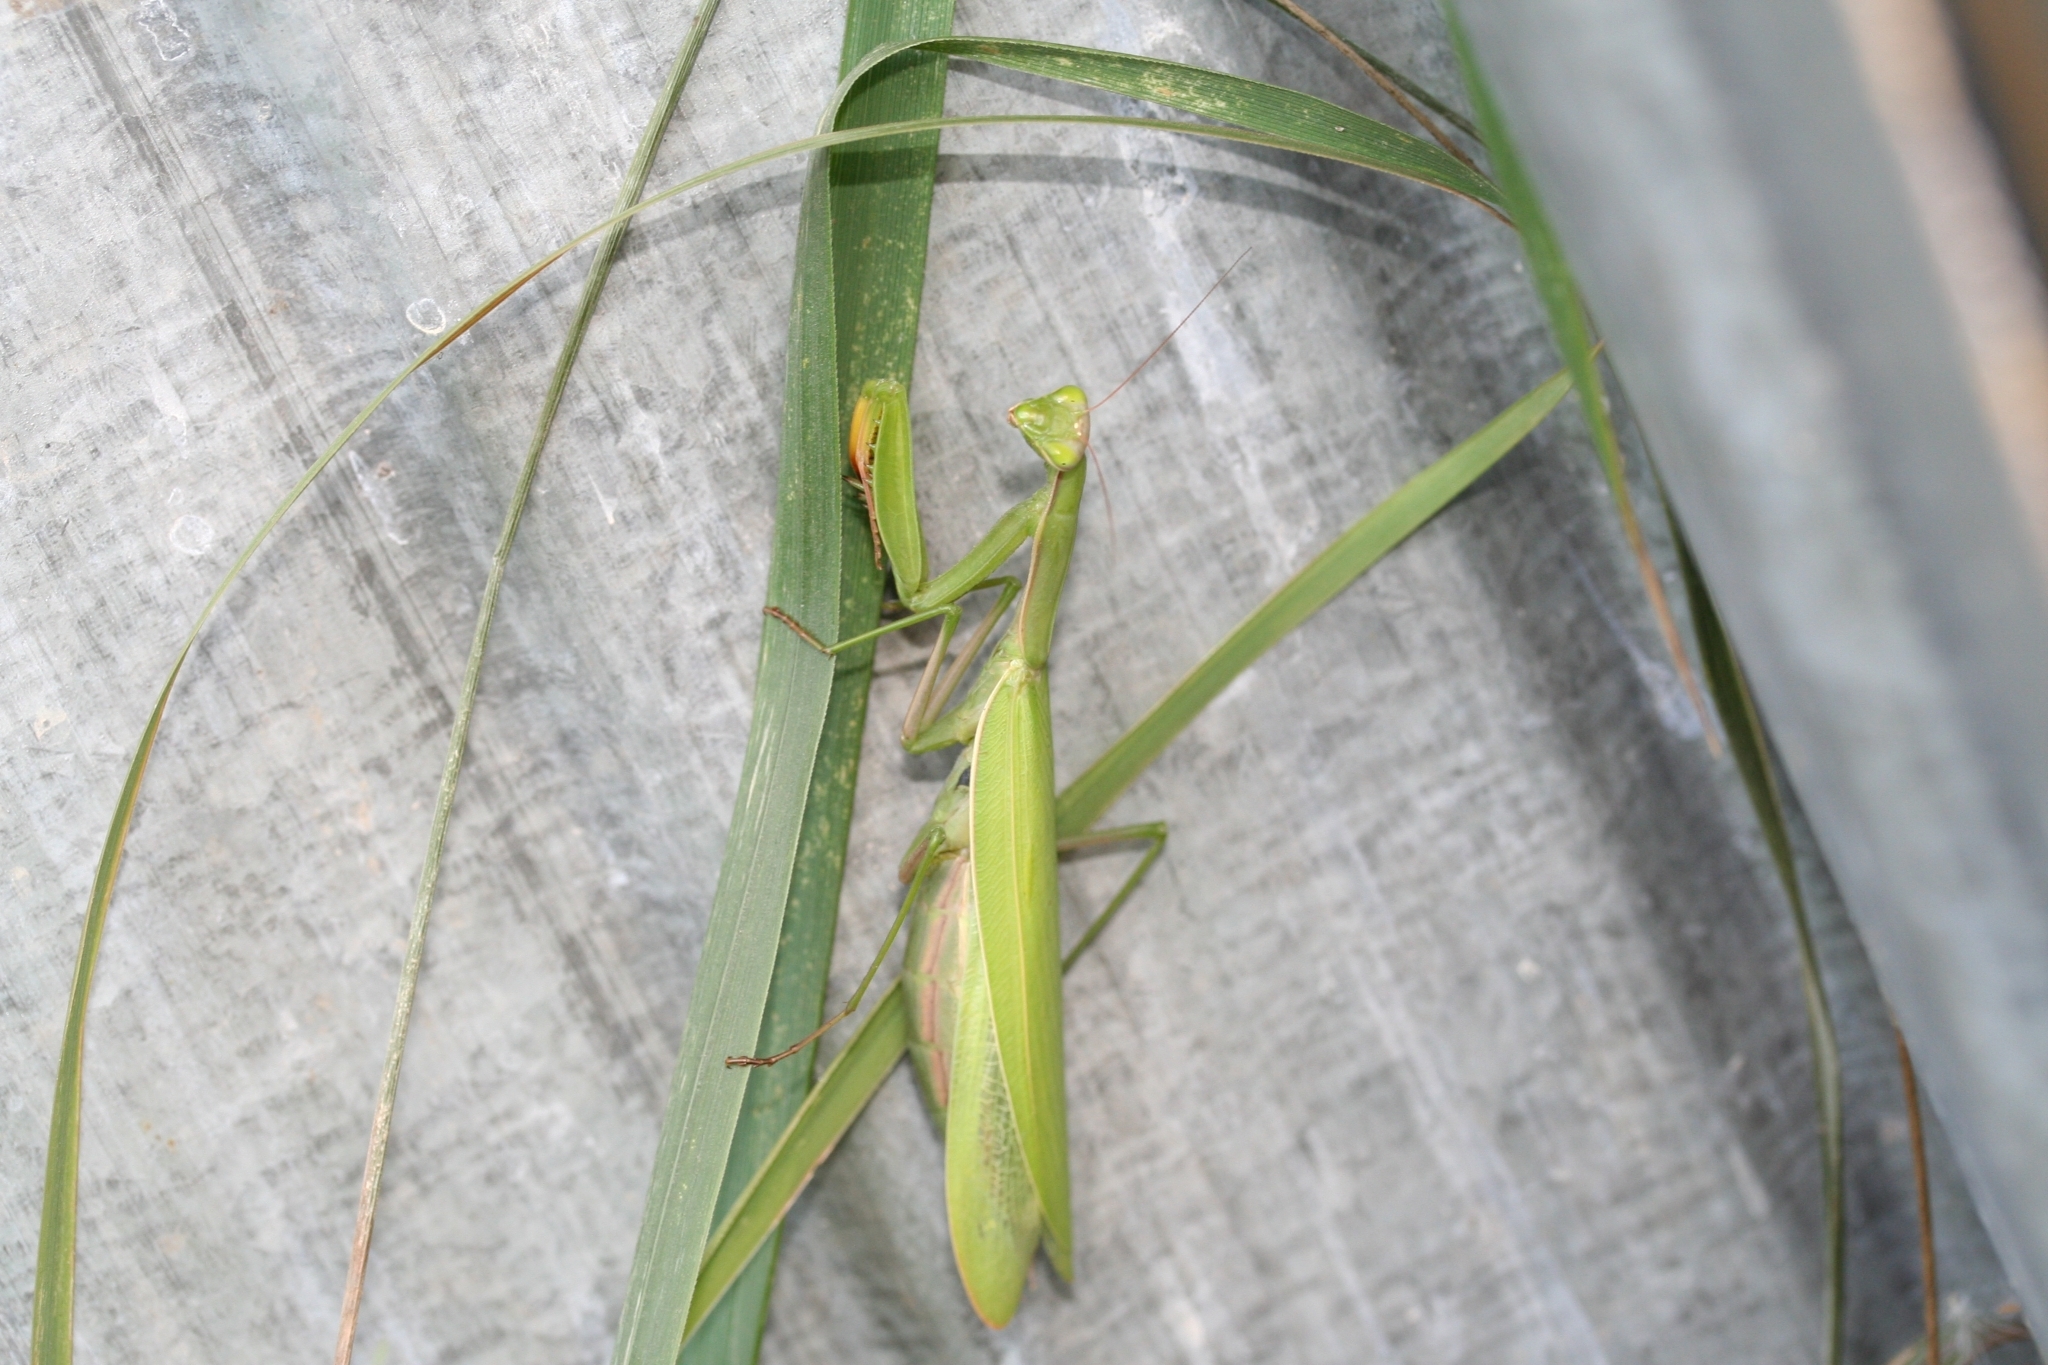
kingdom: Animalia
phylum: Arthropoda
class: Insecta
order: Mantodea
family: Mantidae
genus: Mantis
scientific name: Mantis religiosa
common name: Praying mantis
